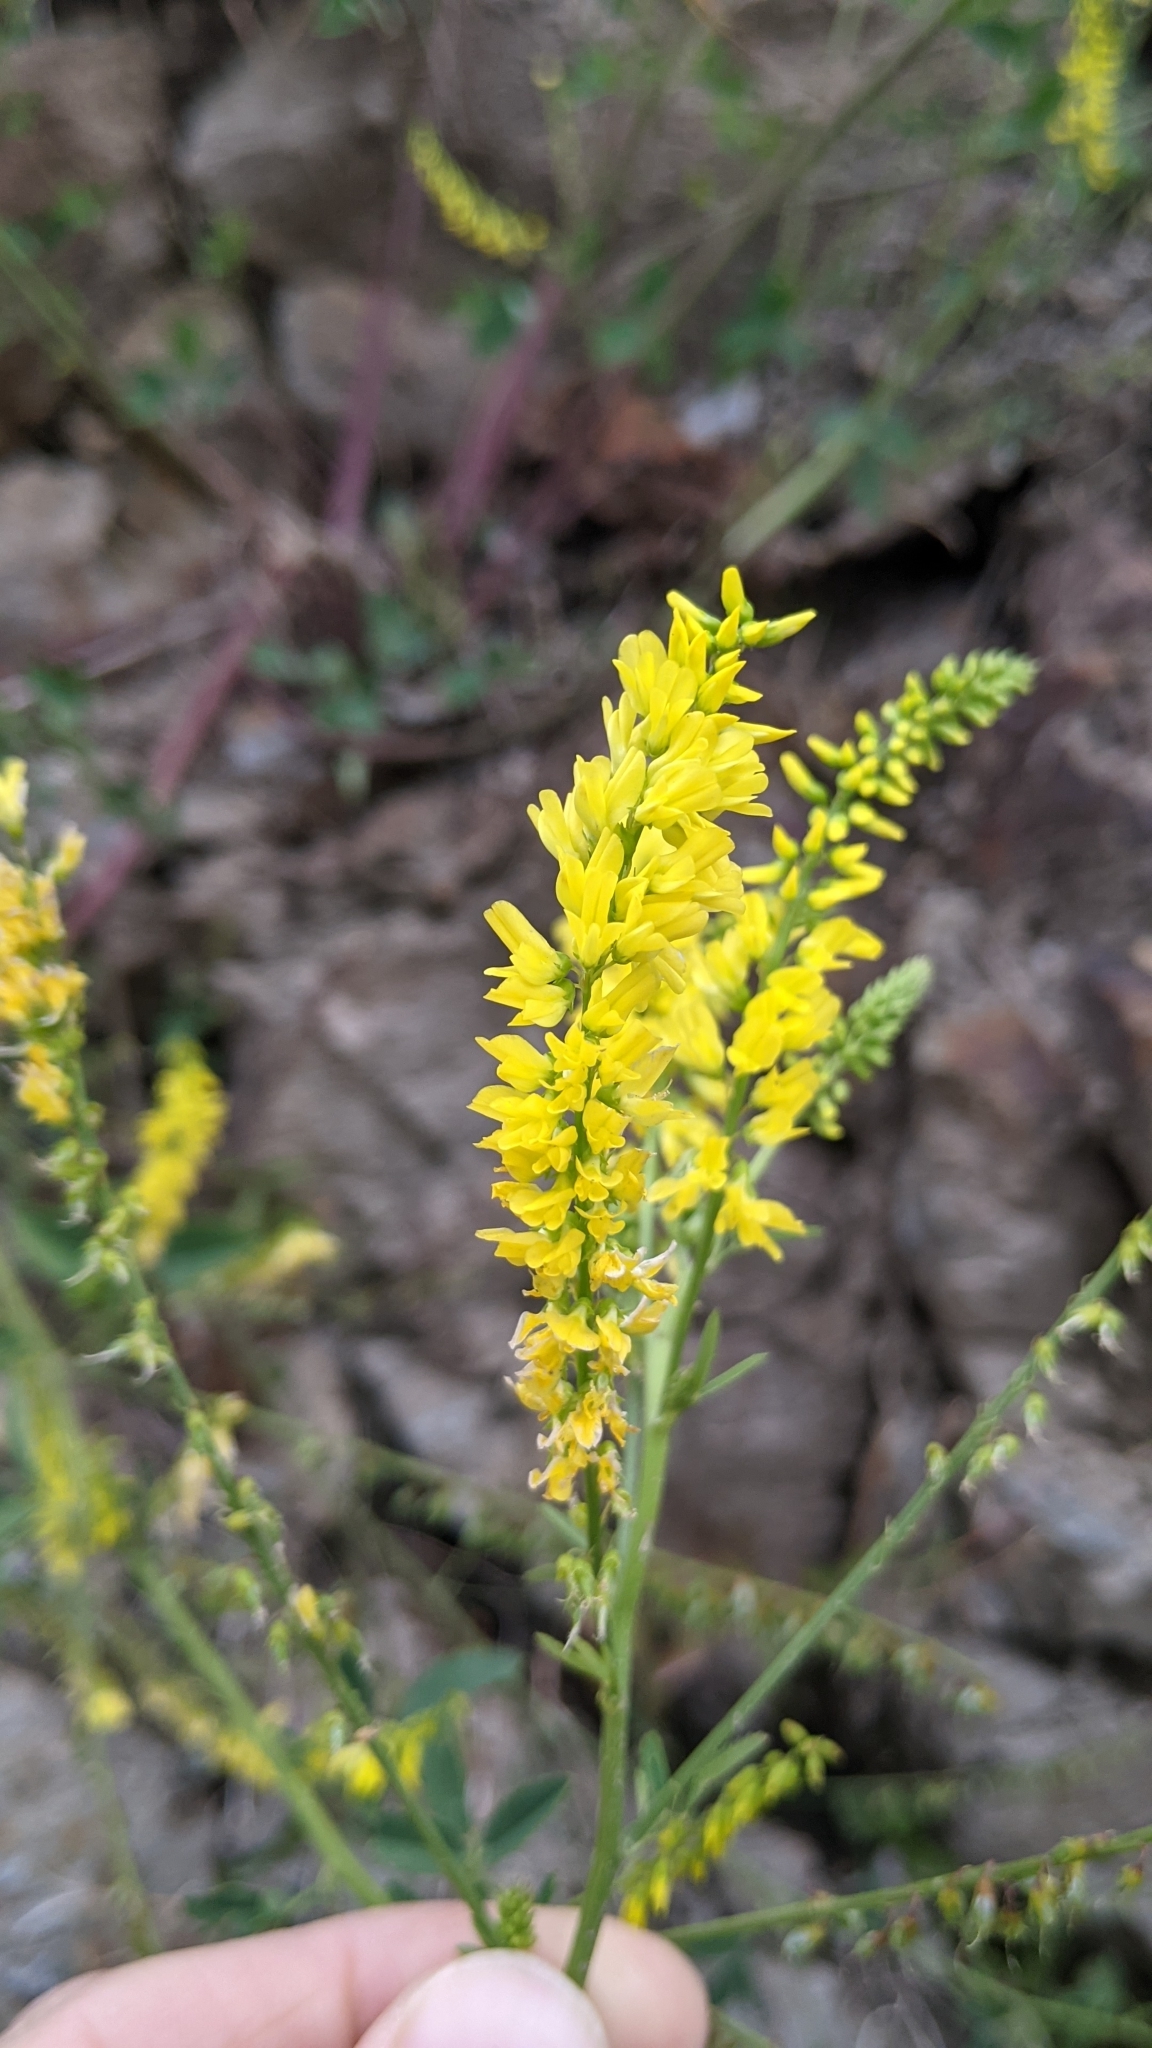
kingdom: Plantae
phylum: Tracheophyta
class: Magnoliopsida
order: Fabales
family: Fabaceae
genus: Melilotus
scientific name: Melilotus officinalis
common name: Sweetclover
